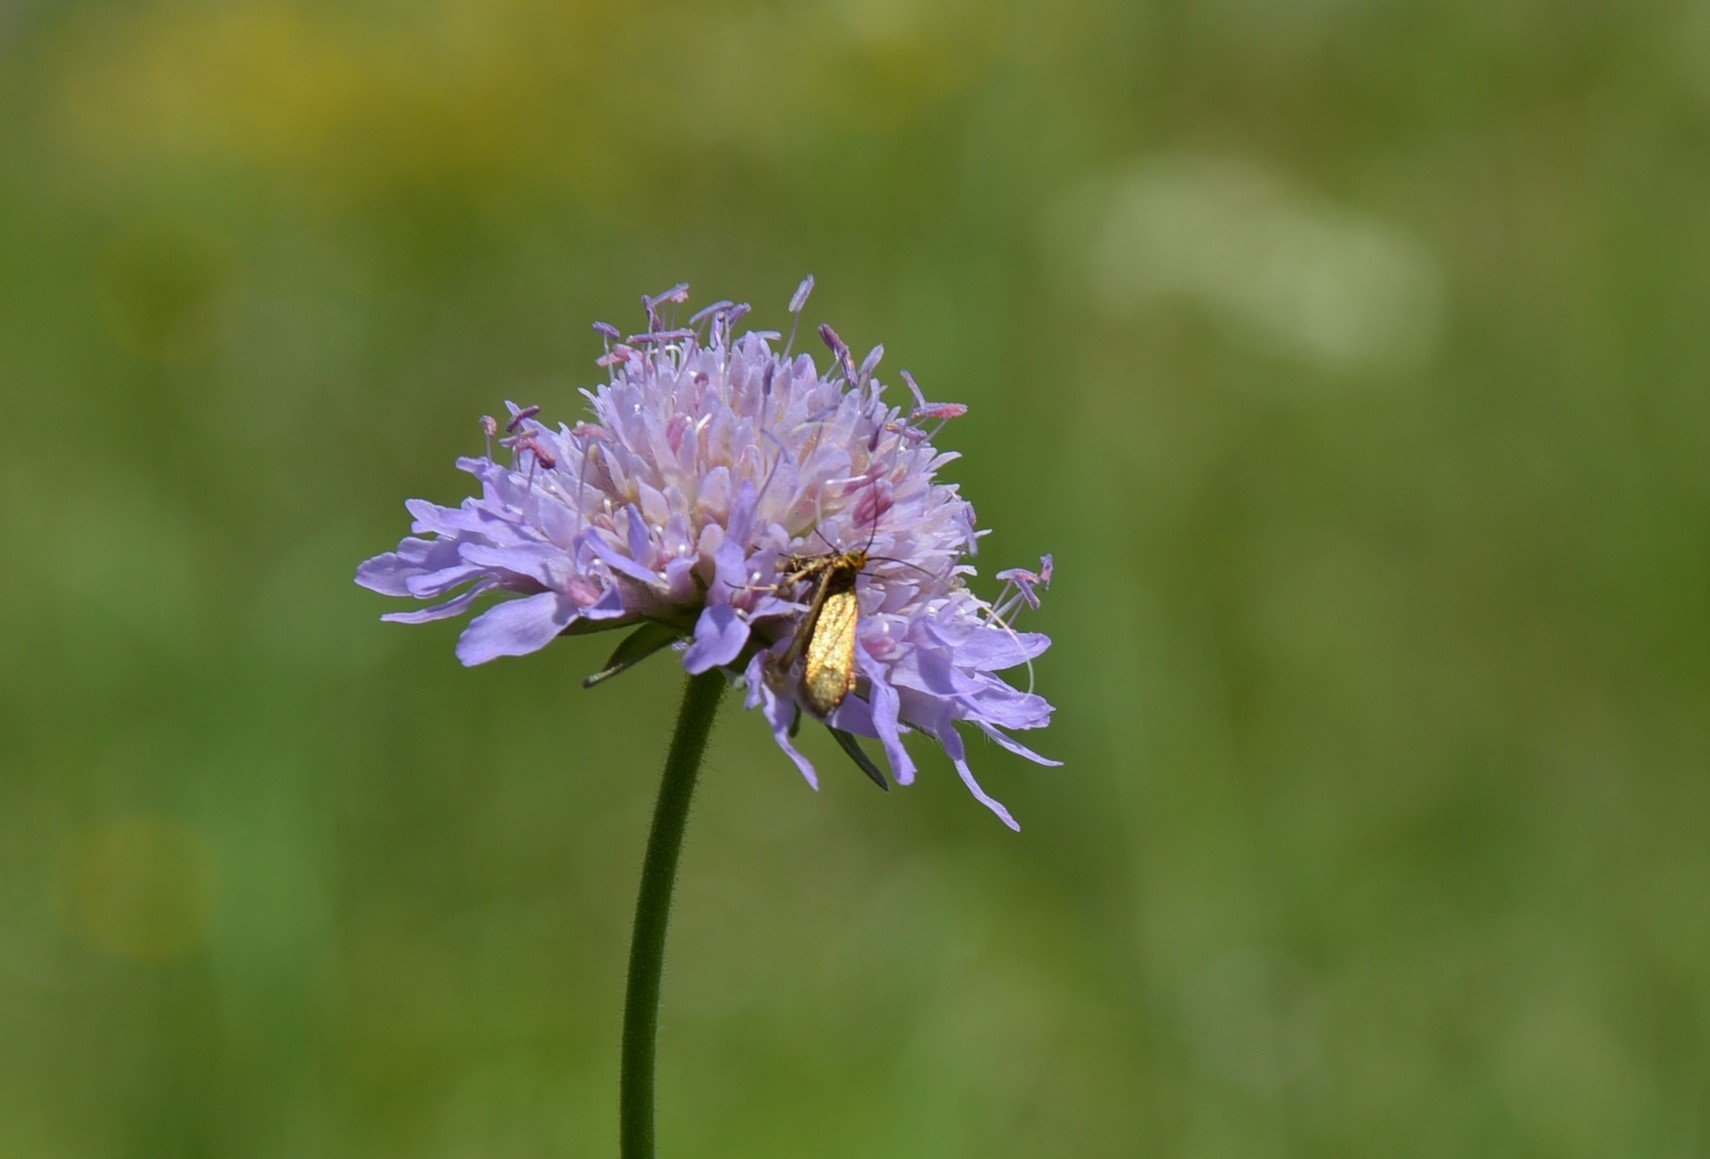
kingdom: Plantae
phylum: Tracheophyta
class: Magnoliopsida
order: Dipsacales
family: Caprifoliaceae
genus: Knautia
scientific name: Knautia
